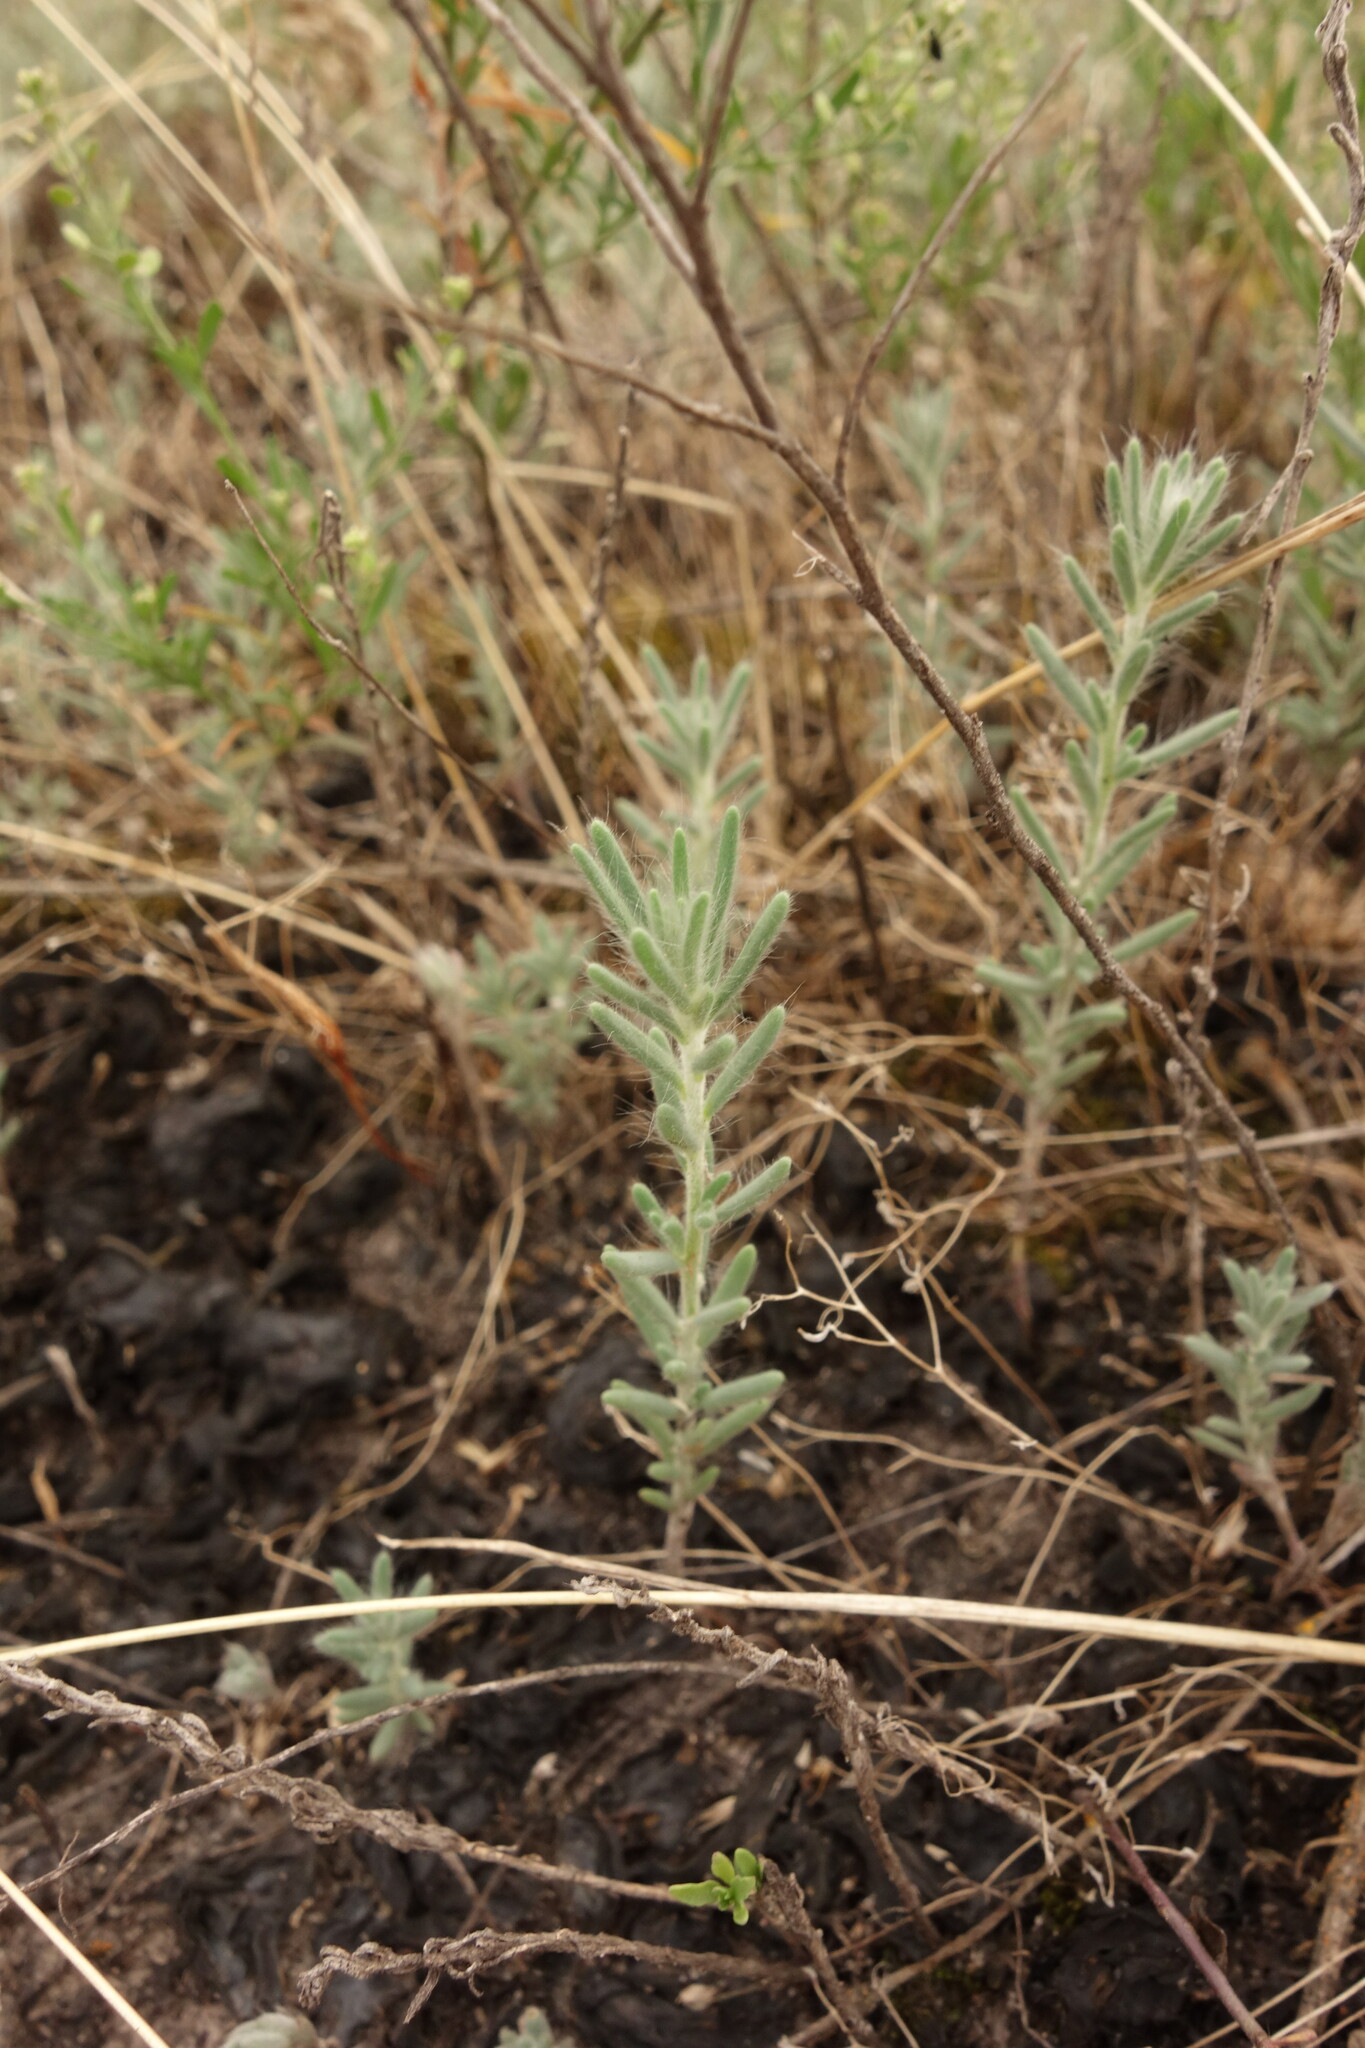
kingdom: Plantae
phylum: Tracheophyta
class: Magnoliopsida
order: Caryophyllales
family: Amaranthaceae
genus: Sedobassia
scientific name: Sedobassia sedoides
